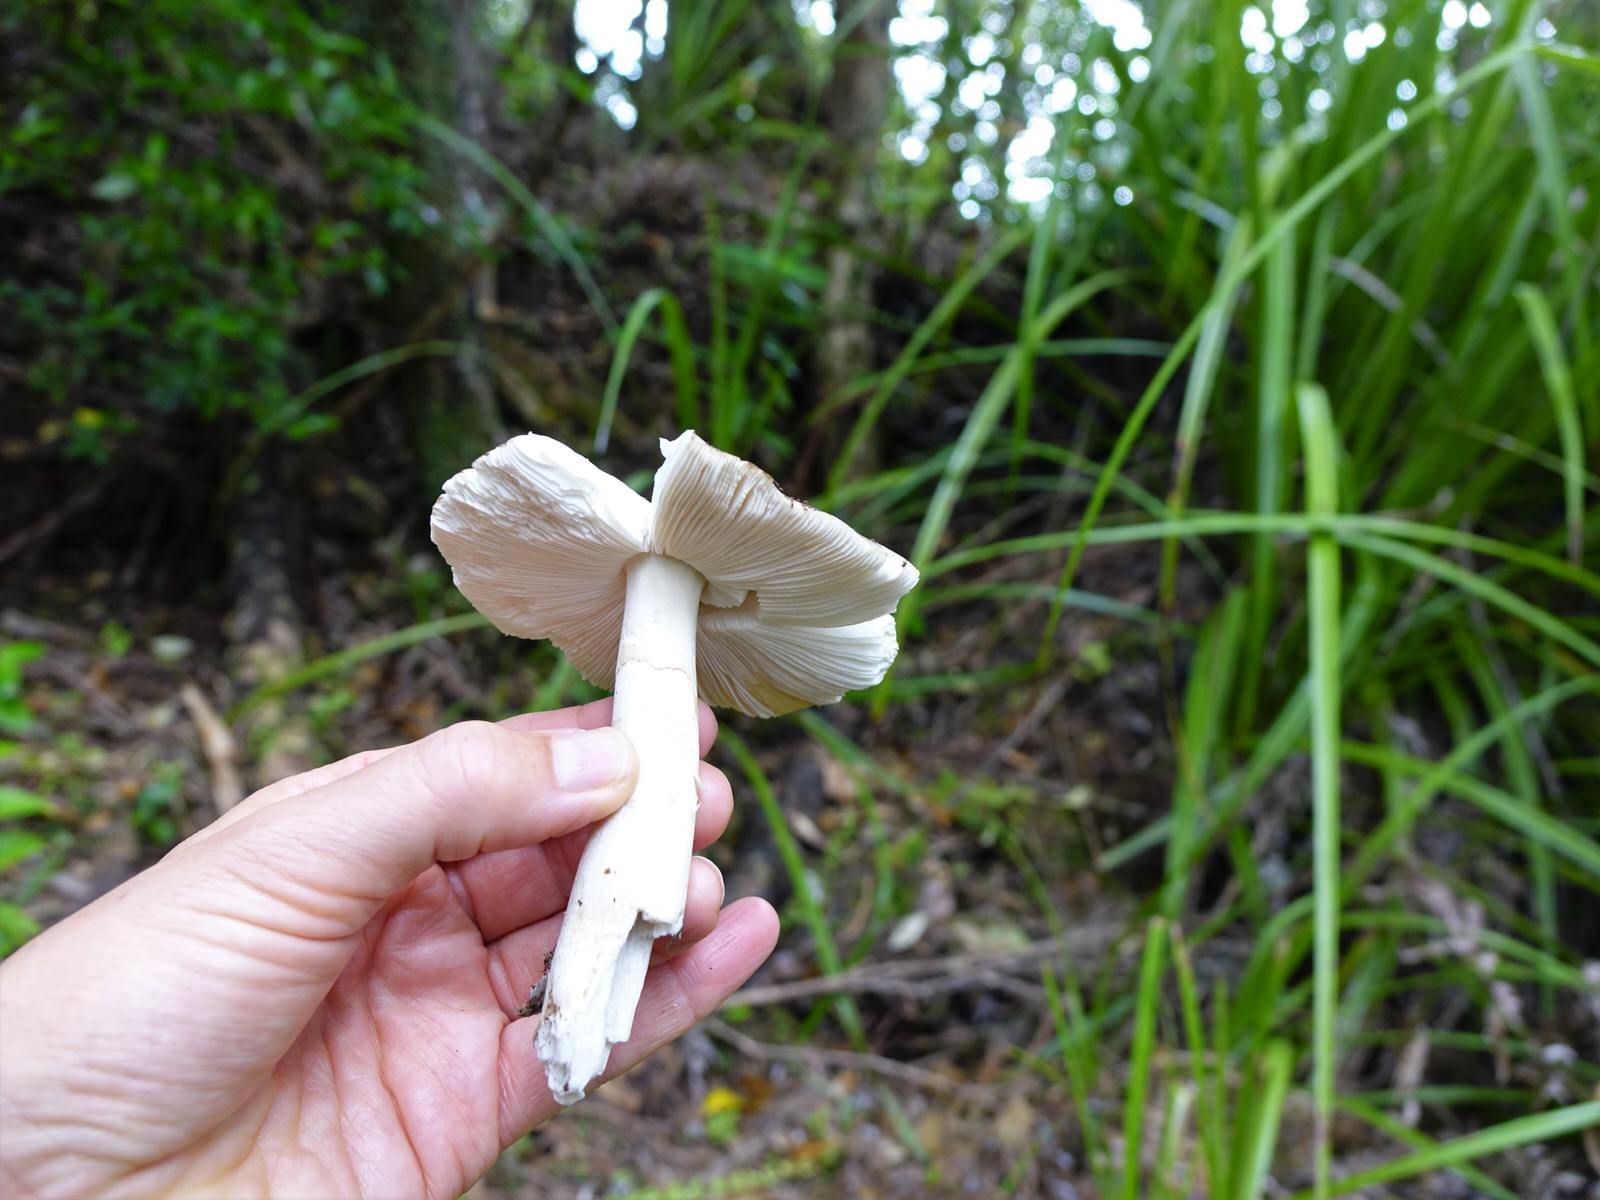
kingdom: Fungi
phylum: Basidiomycota
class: Agaricomycetes
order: Agaricales
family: Amanitaceae
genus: Amanita
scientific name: Amanita nothofagi
